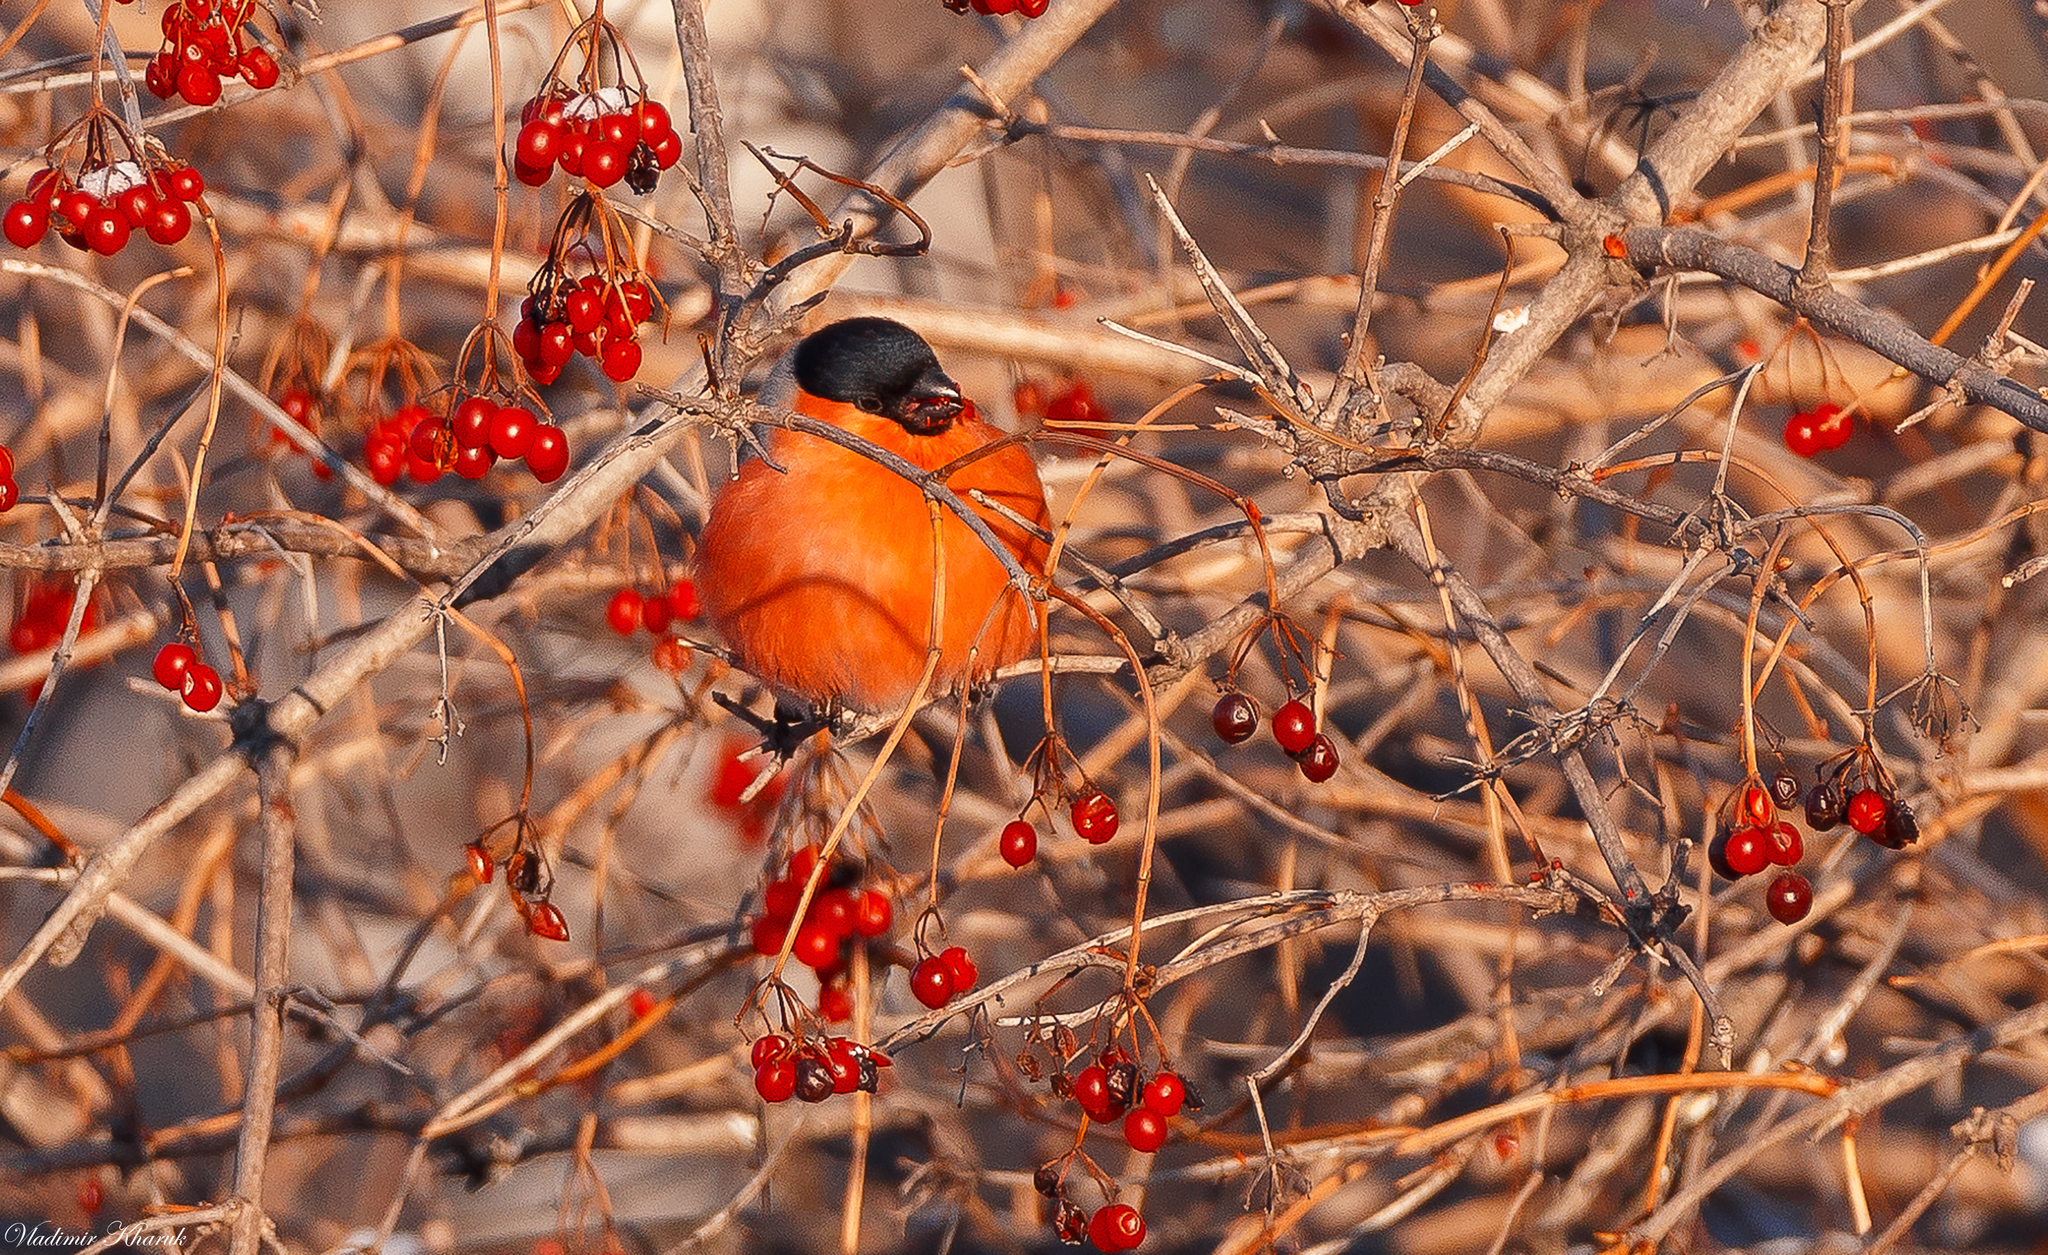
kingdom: Animalia
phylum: Chordata
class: Aves
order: Passeriformes
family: Fringillidae
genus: Pyrrhula
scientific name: Pyrrhula pyrrhula
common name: Eurasian bullfinch
